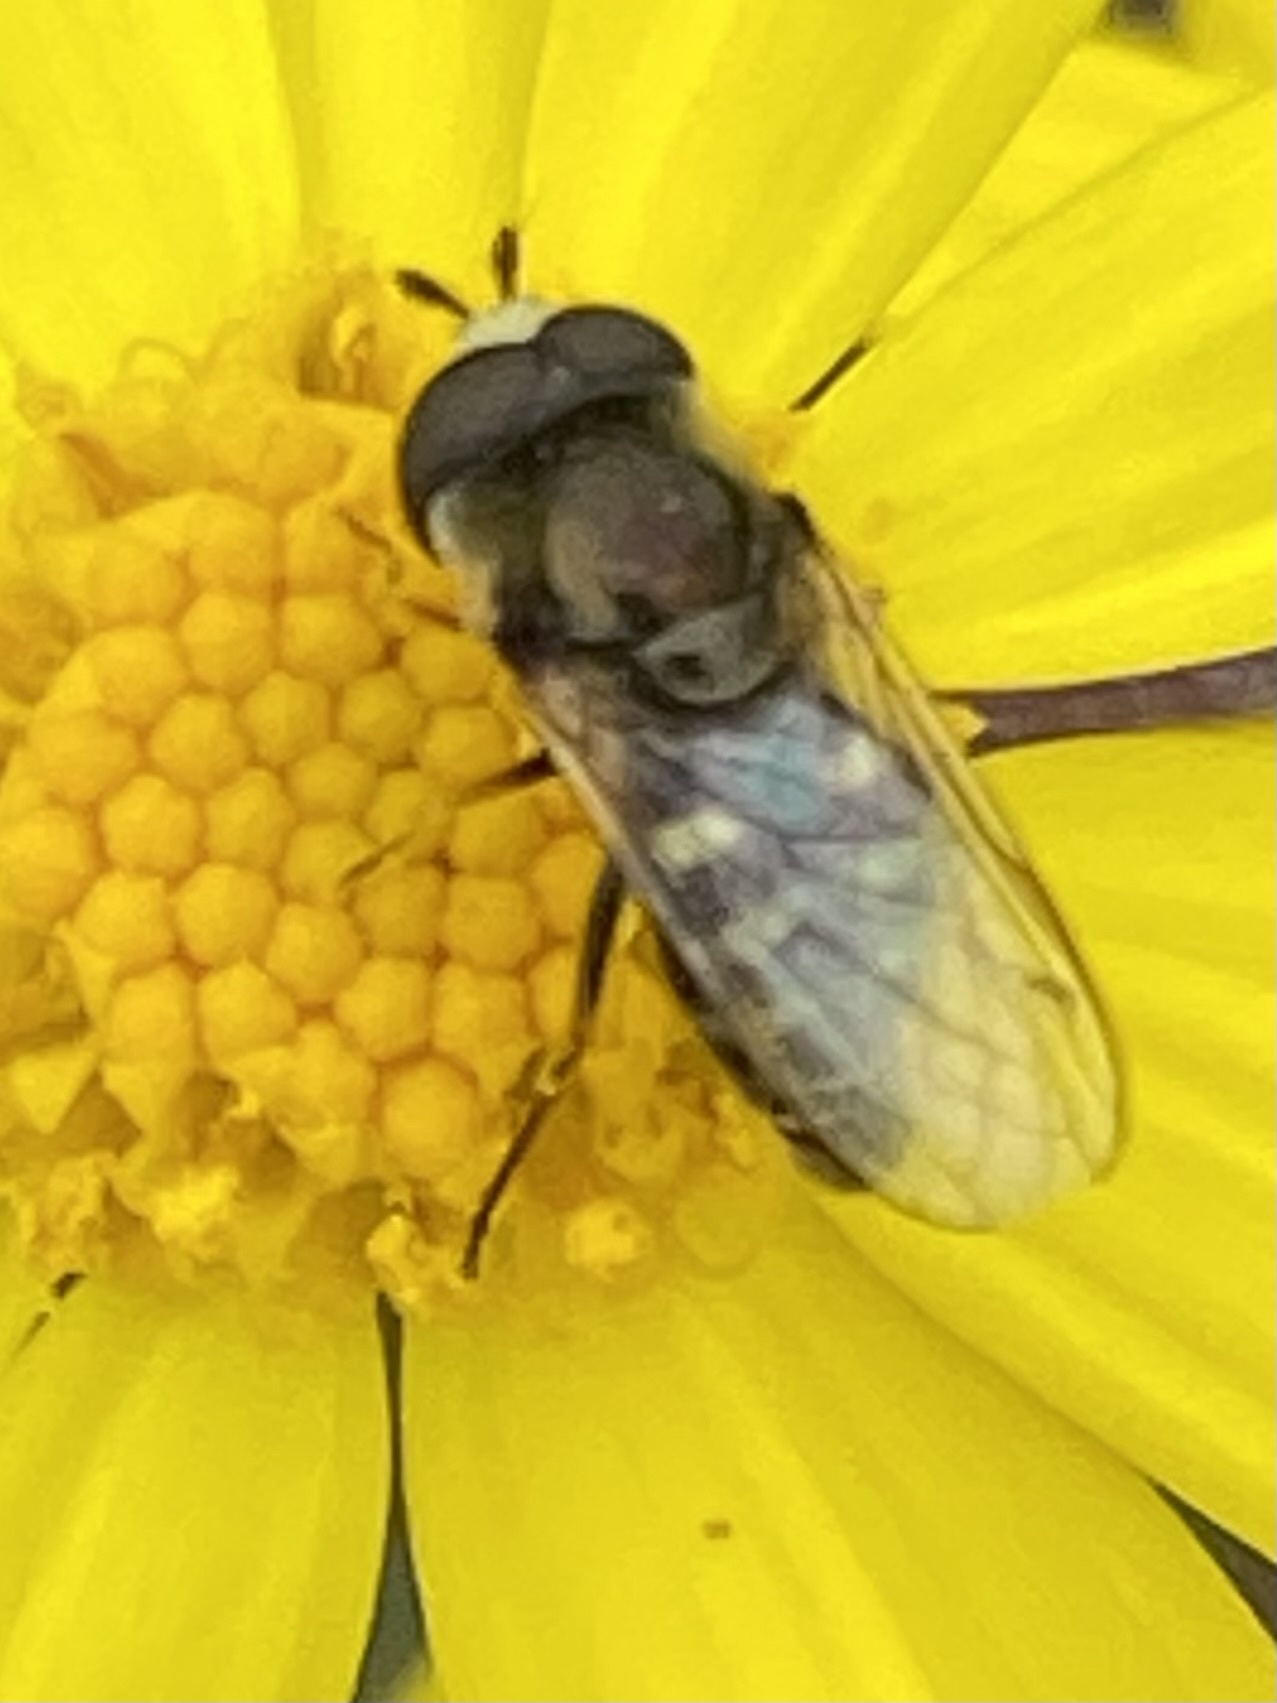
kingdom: Animalia
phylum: Arthropoda
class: Insecta
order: Diptera
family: Syrphidae
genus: Eupeodes
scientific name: Eupeodes volucris
